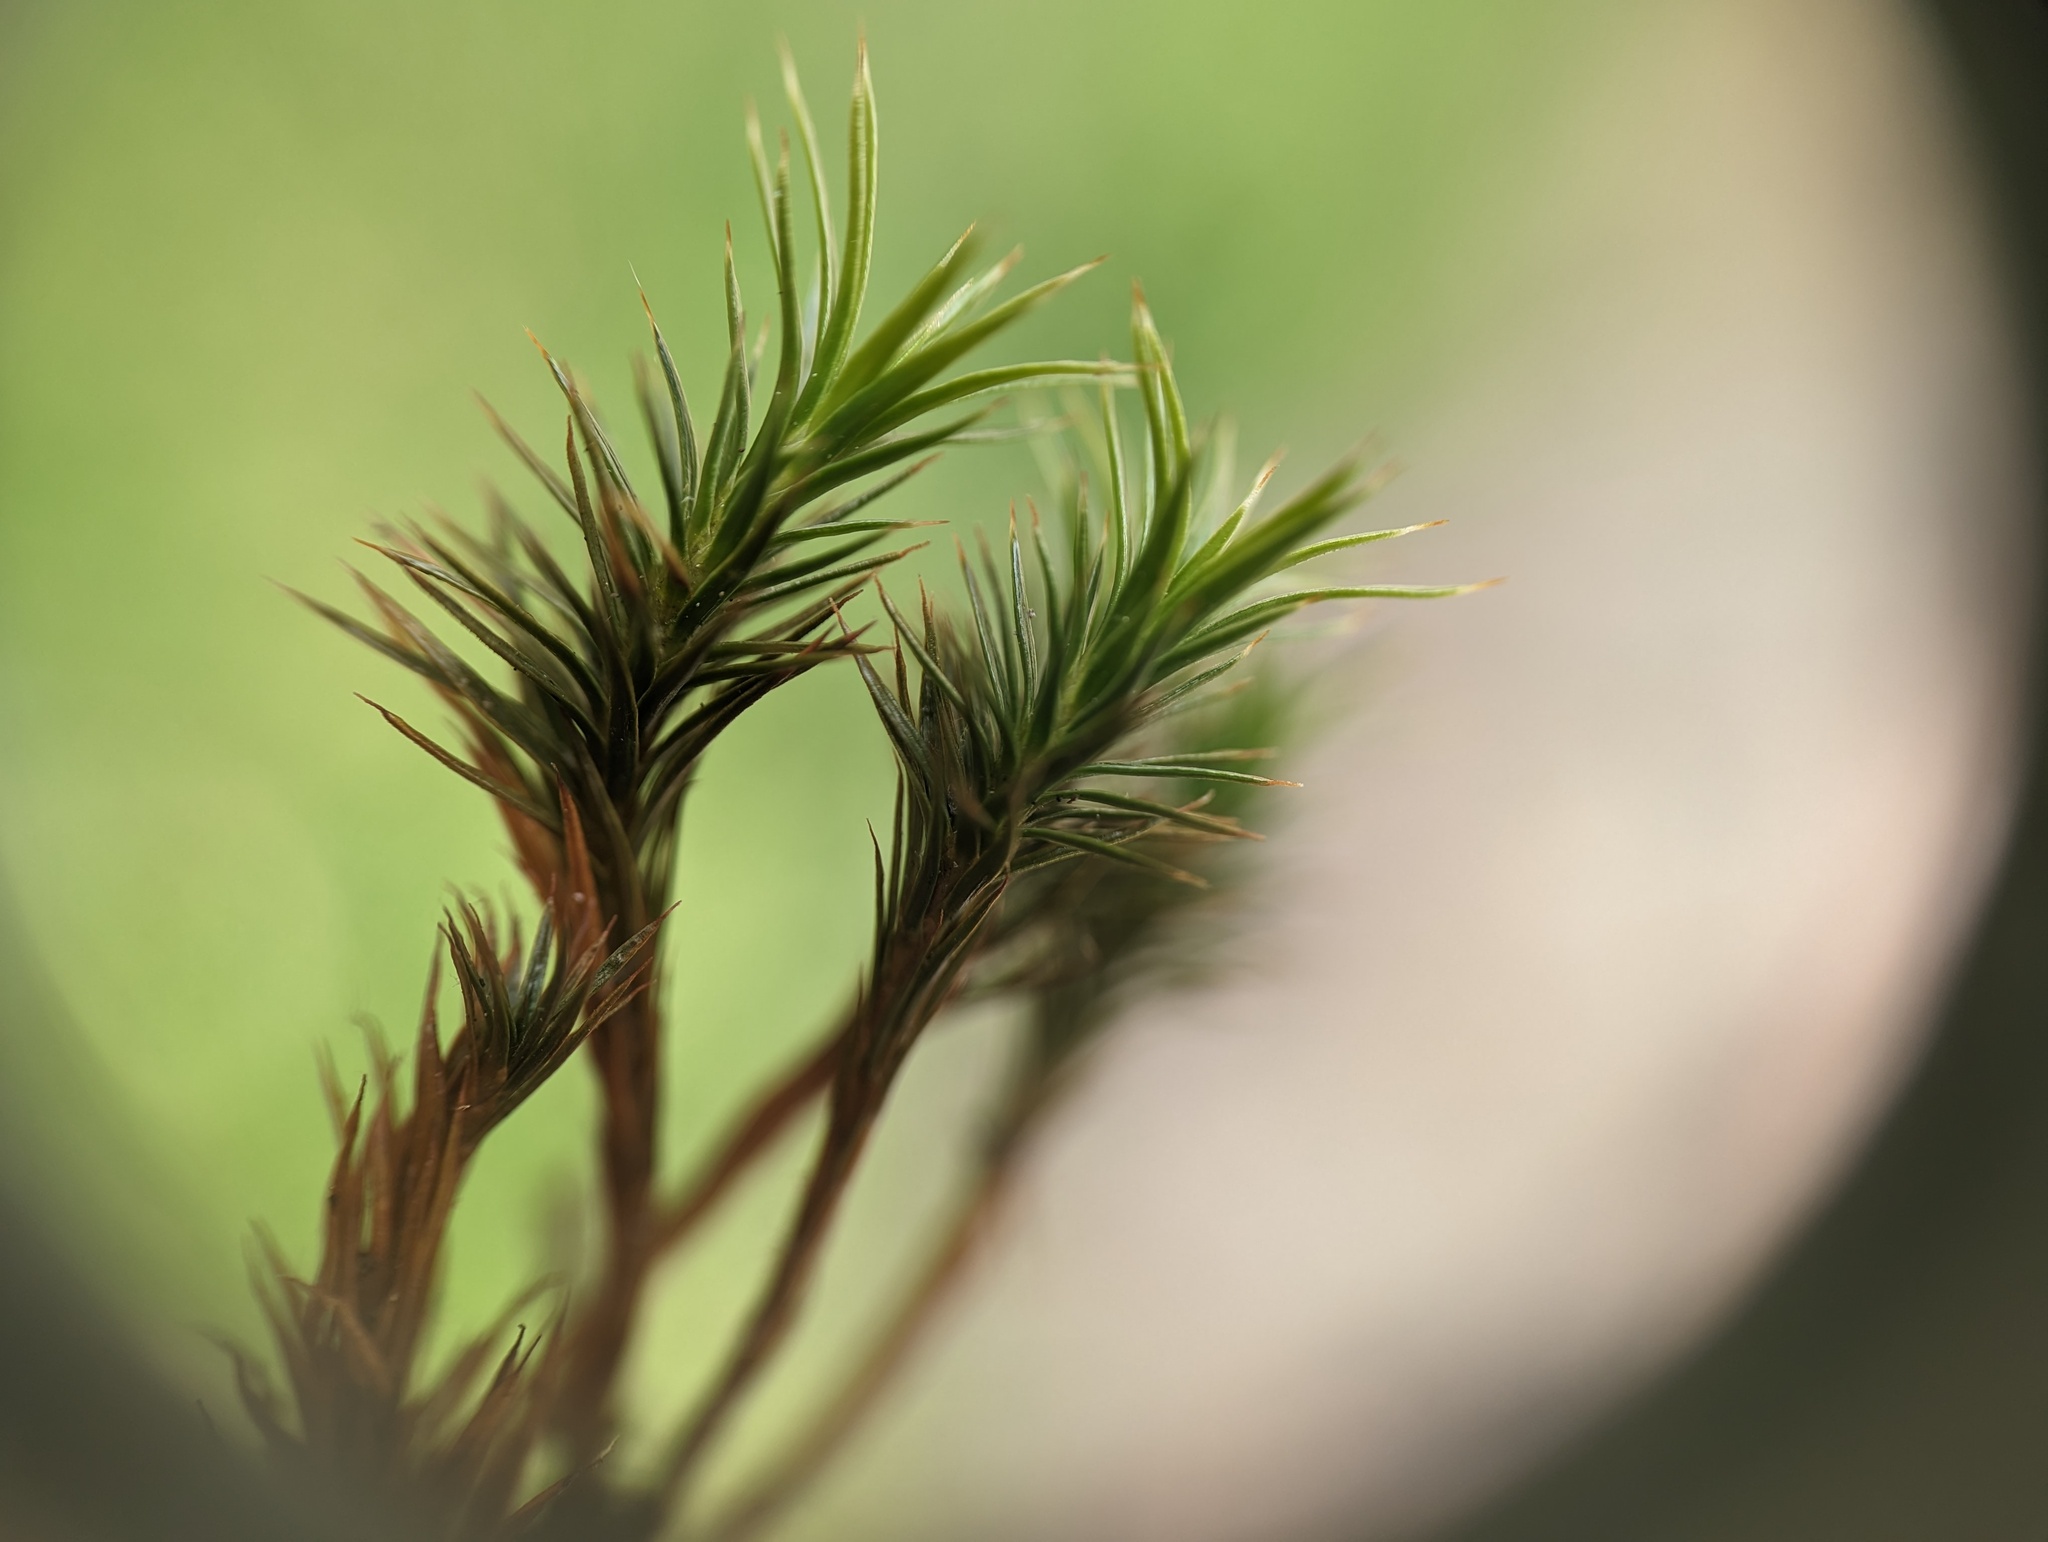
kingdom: Plantae
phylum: Bryophyta
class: Polytrichopsida
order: Polytrichales
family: Polytrichaceae
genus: Polytrichum
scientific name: Polytrichum juniperinum
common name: Juniper haircap moss
